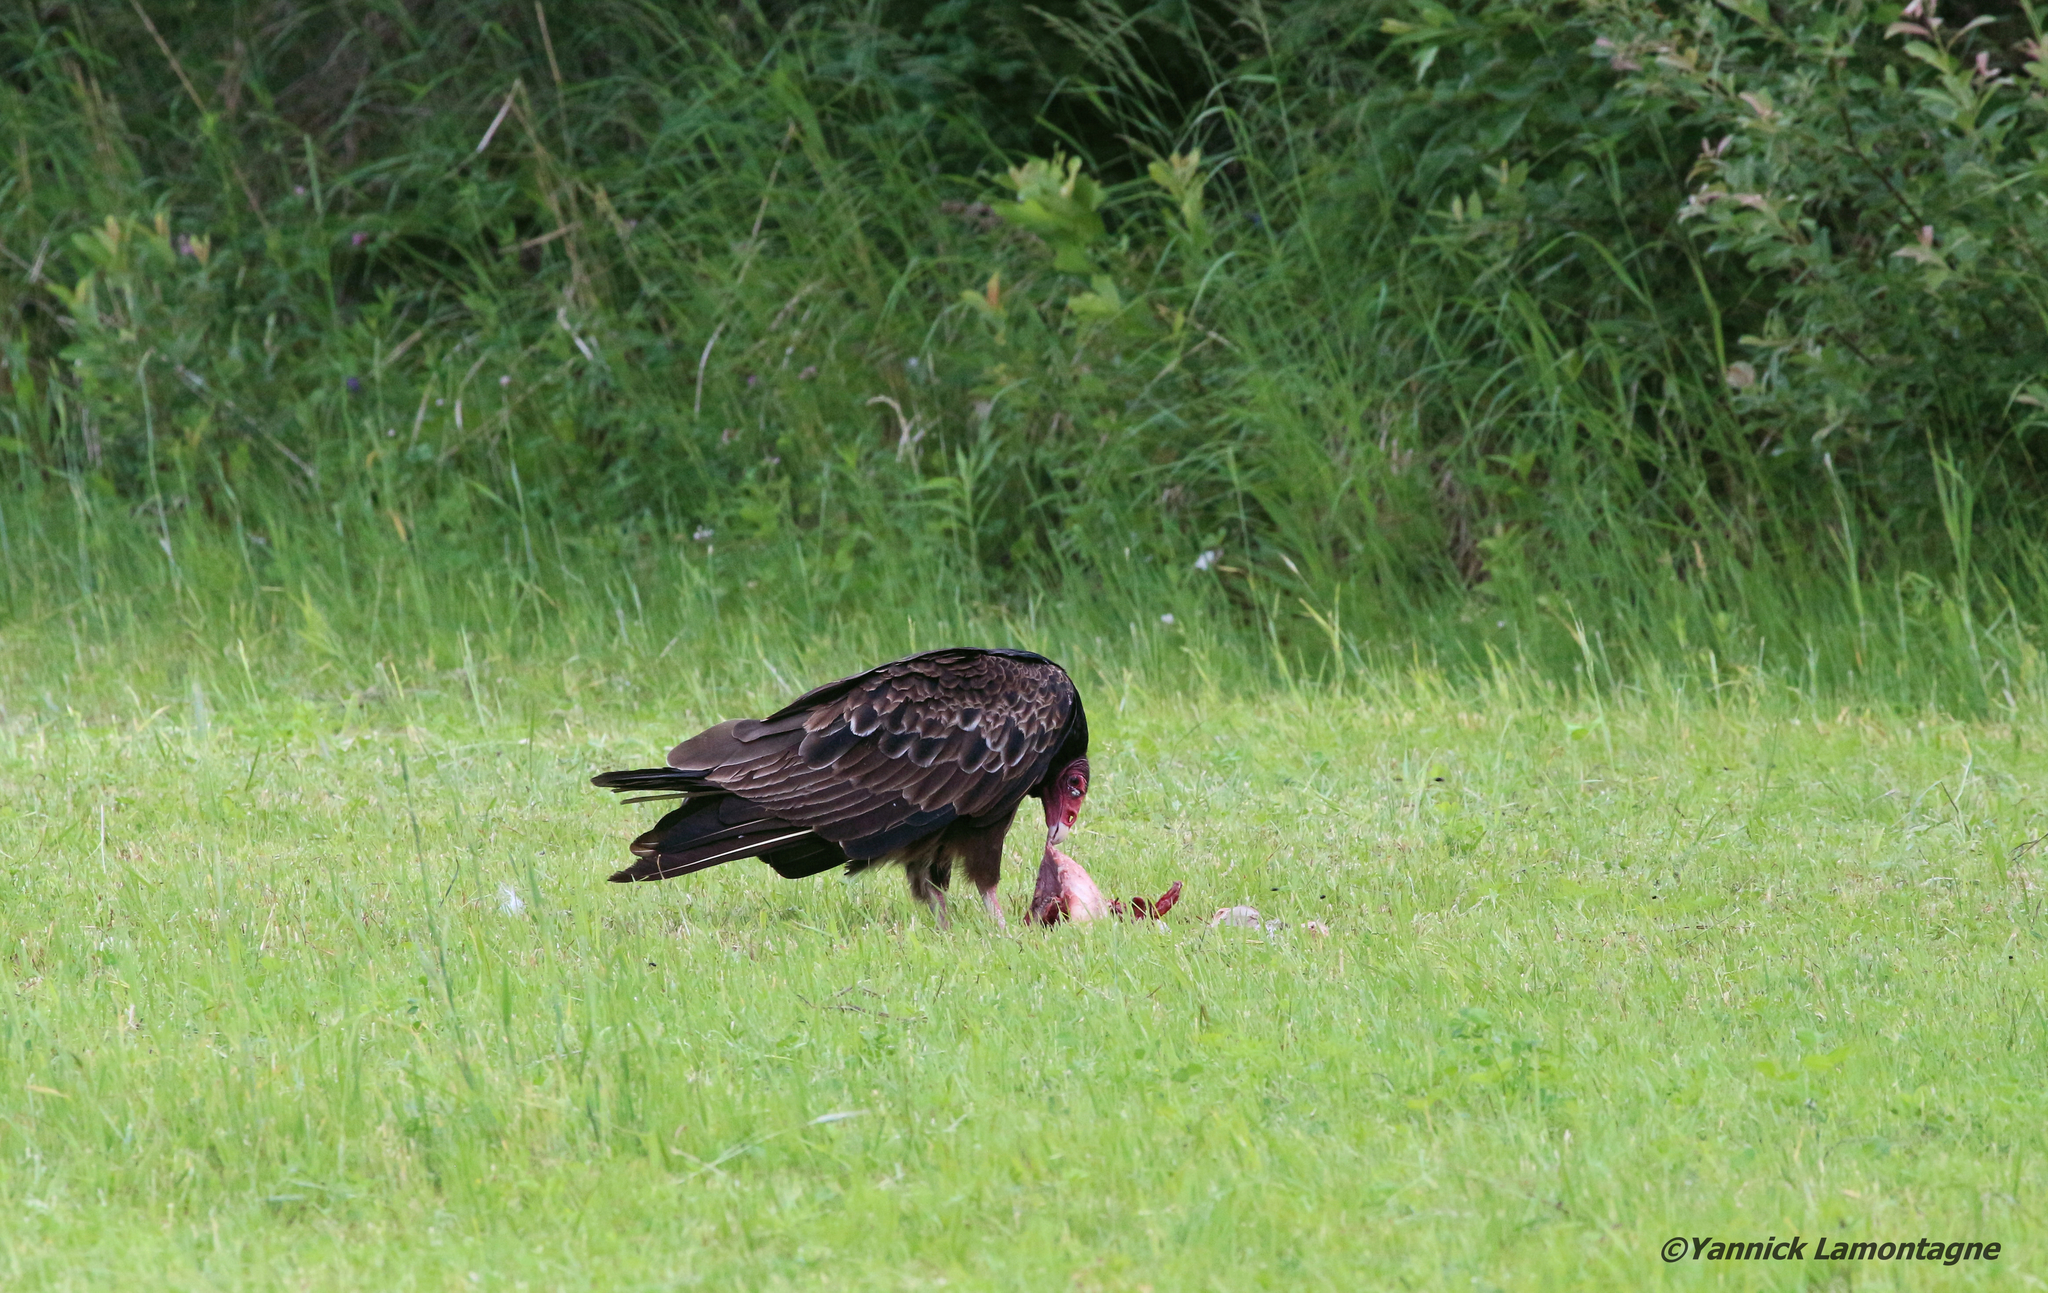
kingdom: Animalia
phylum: Chordata
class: Aves
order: Accipitriformes
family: Cathartidae
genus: Cathartes
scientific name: Cathartes aura
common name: Turkey vulture
